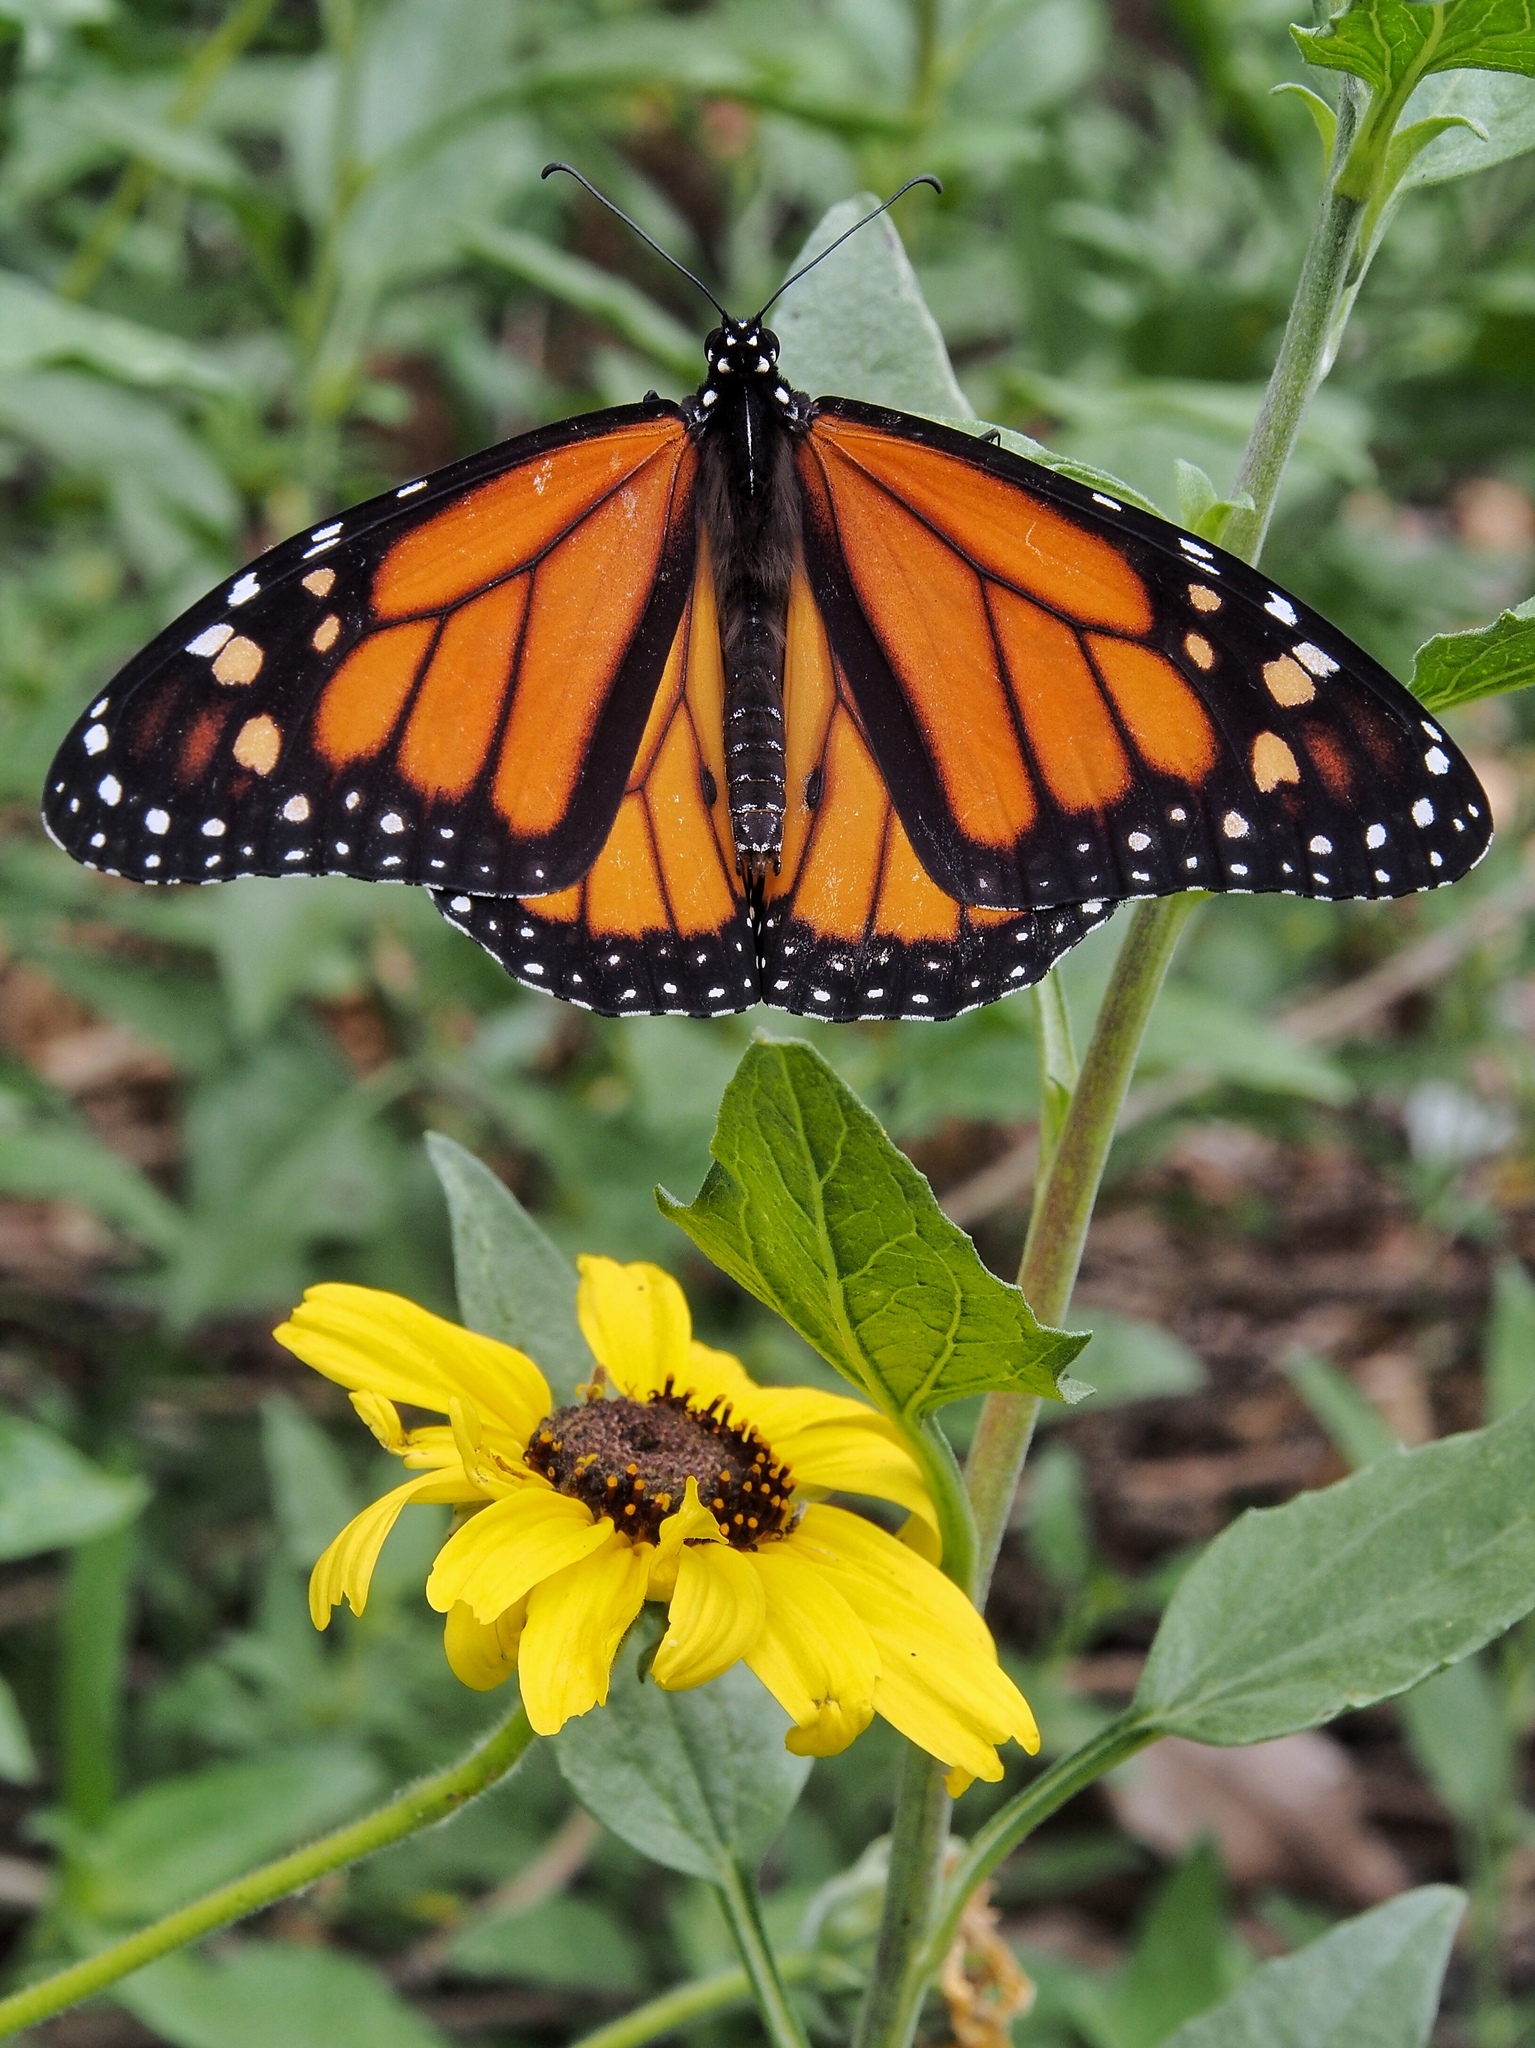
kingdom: Animalia
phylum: Arthropoda
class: Insecta
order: Lepidoptera
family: Nymphalidae
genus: Danaus
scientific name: Danaus plexippus
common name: Monarch
